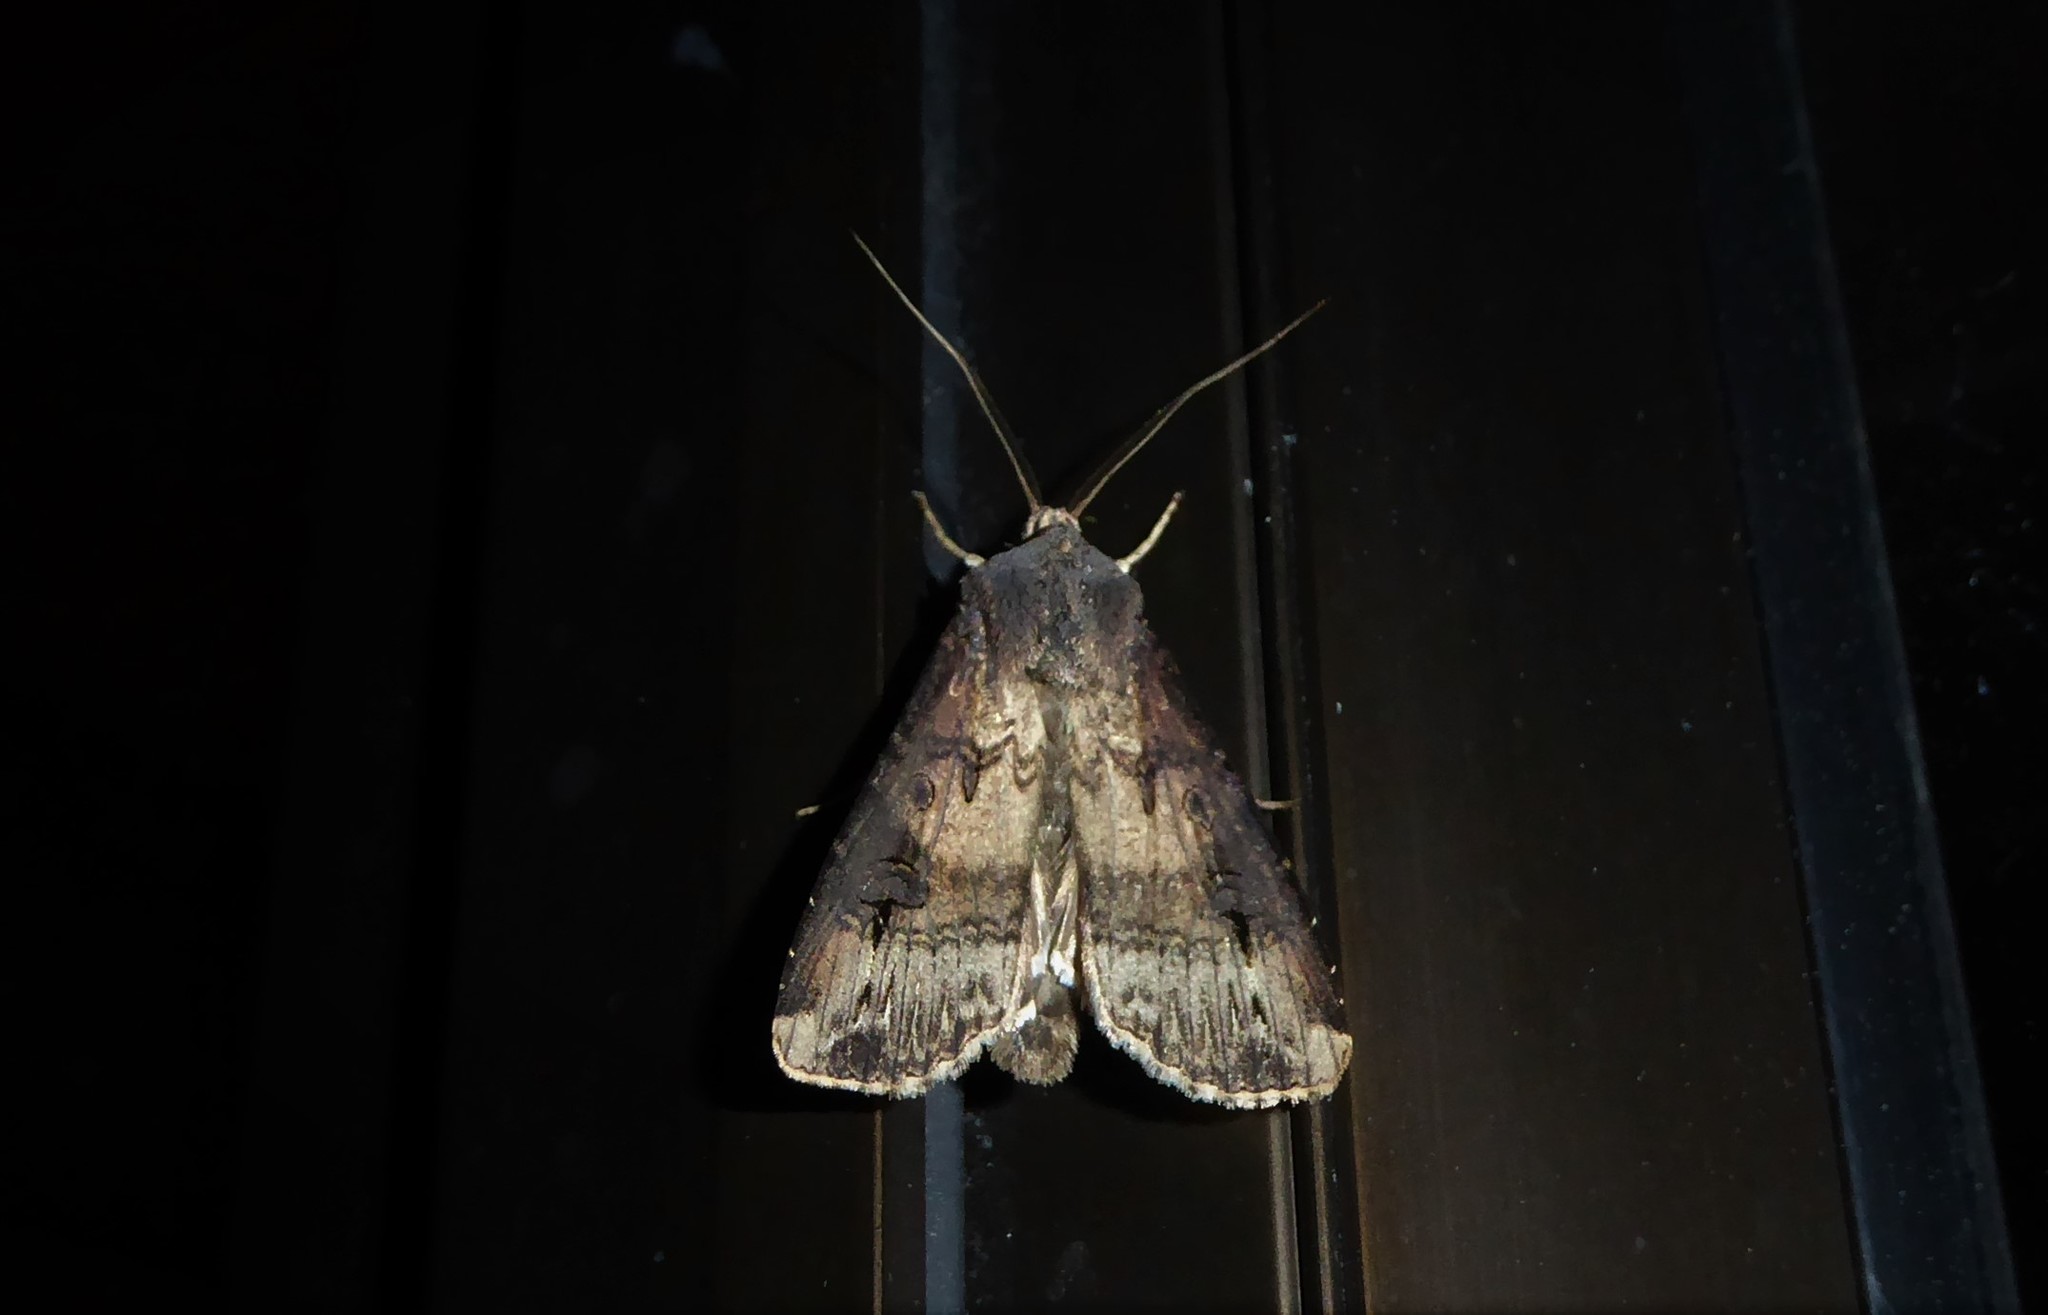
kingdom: Animalia
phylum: Arthropoda
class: Insecta
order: Lepidoptera
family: Noctuidae
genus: Agrotis
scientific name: Agrotis ipsilon
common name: Dark sword-grass
